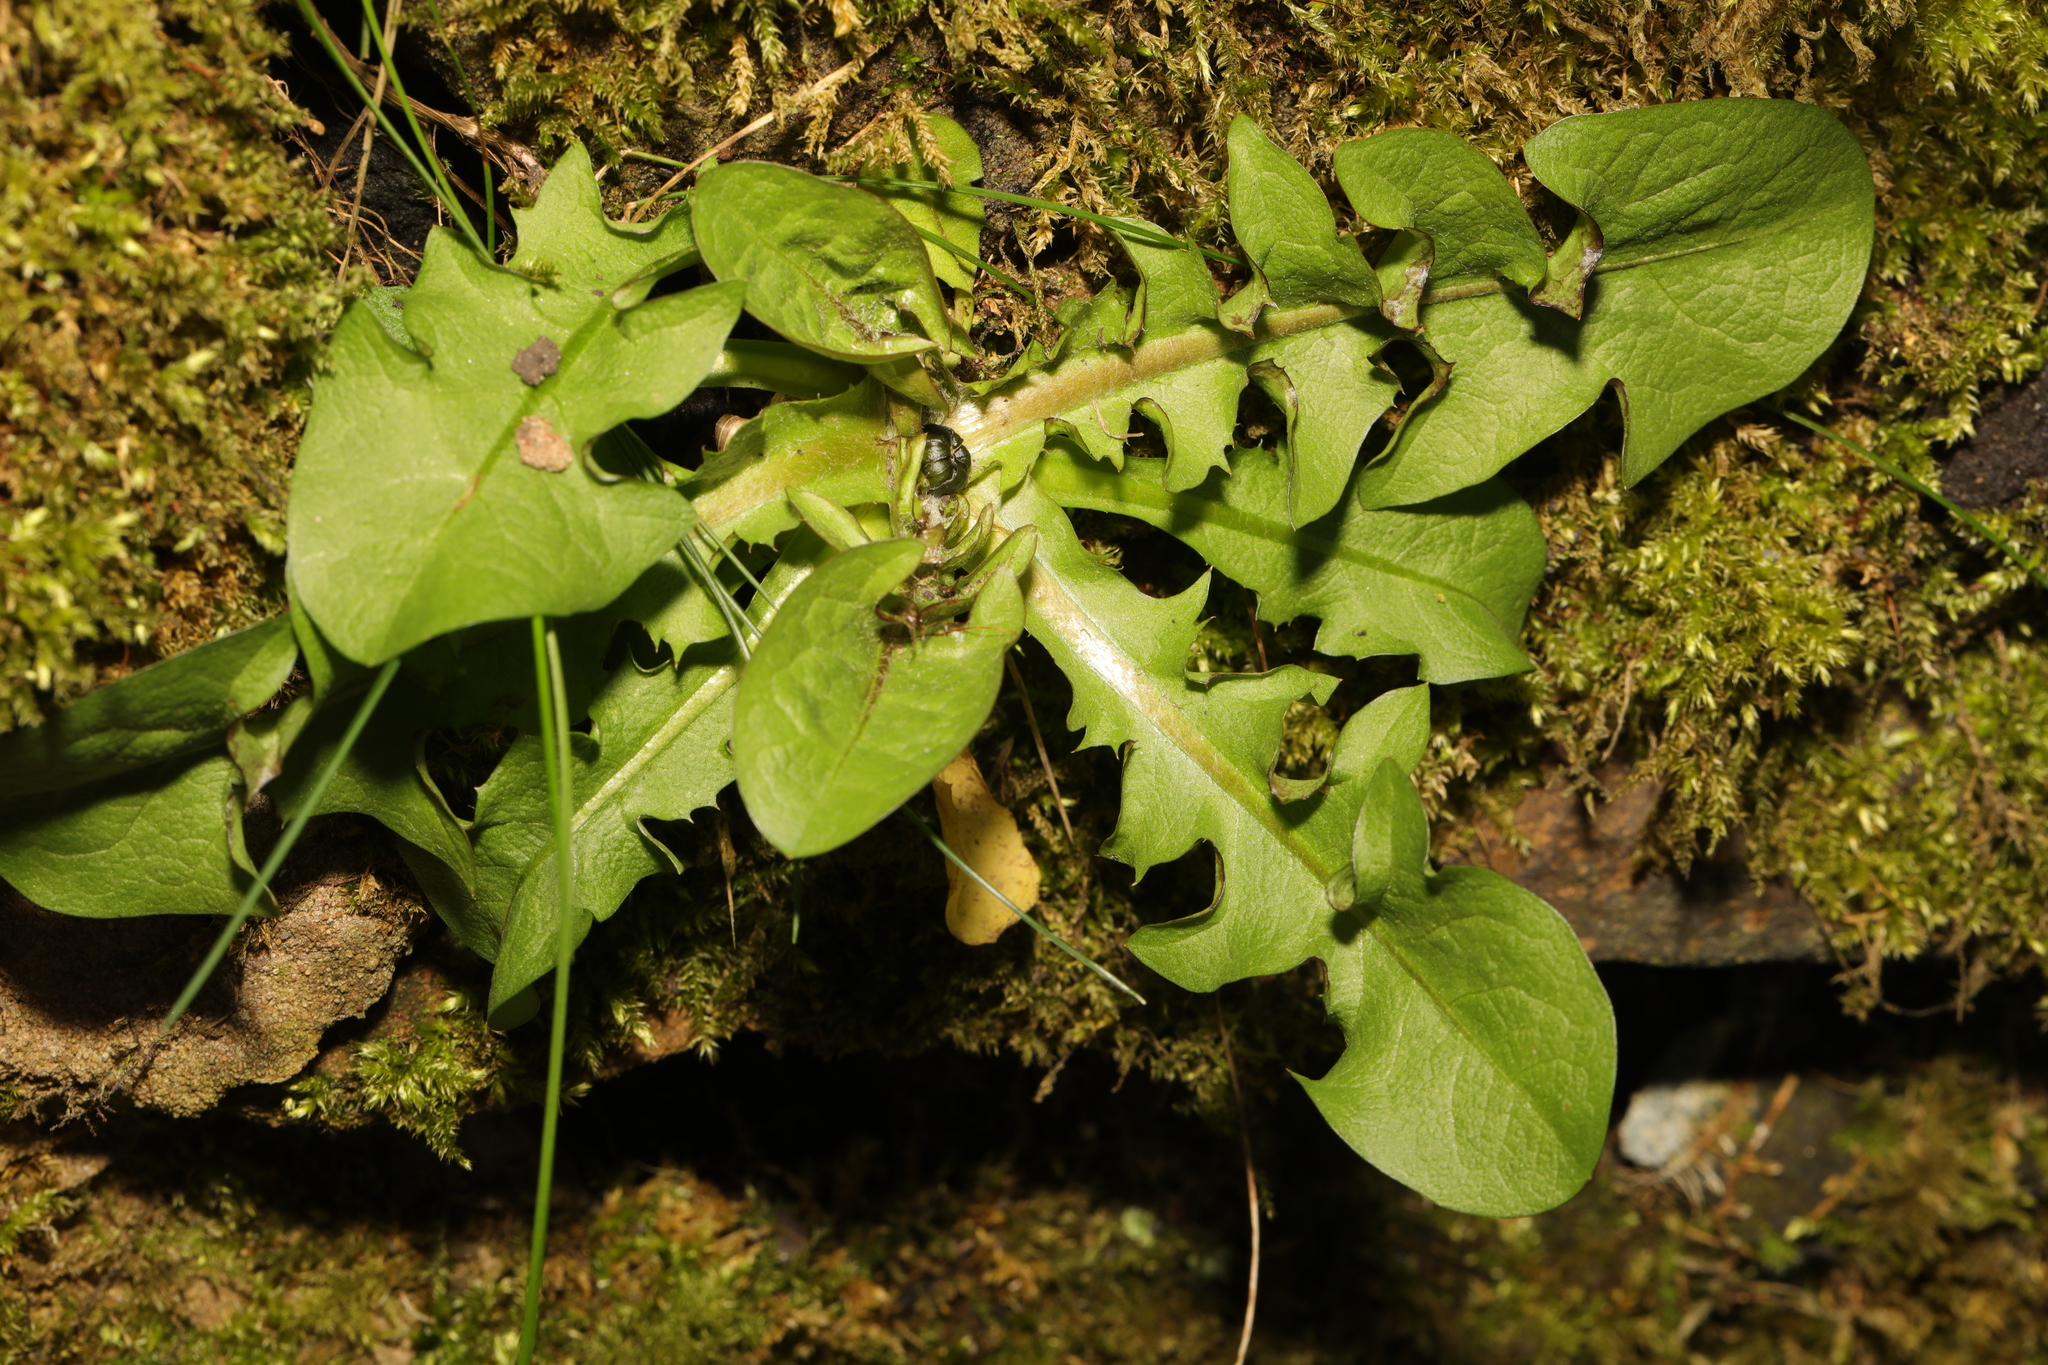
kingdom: Plantae
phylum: Tracheophyta
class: Magnoliopsida
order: Asterales
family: Asteraceae
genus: Taraxacum
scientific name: Taraxacum officinale
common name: Common dandelion
